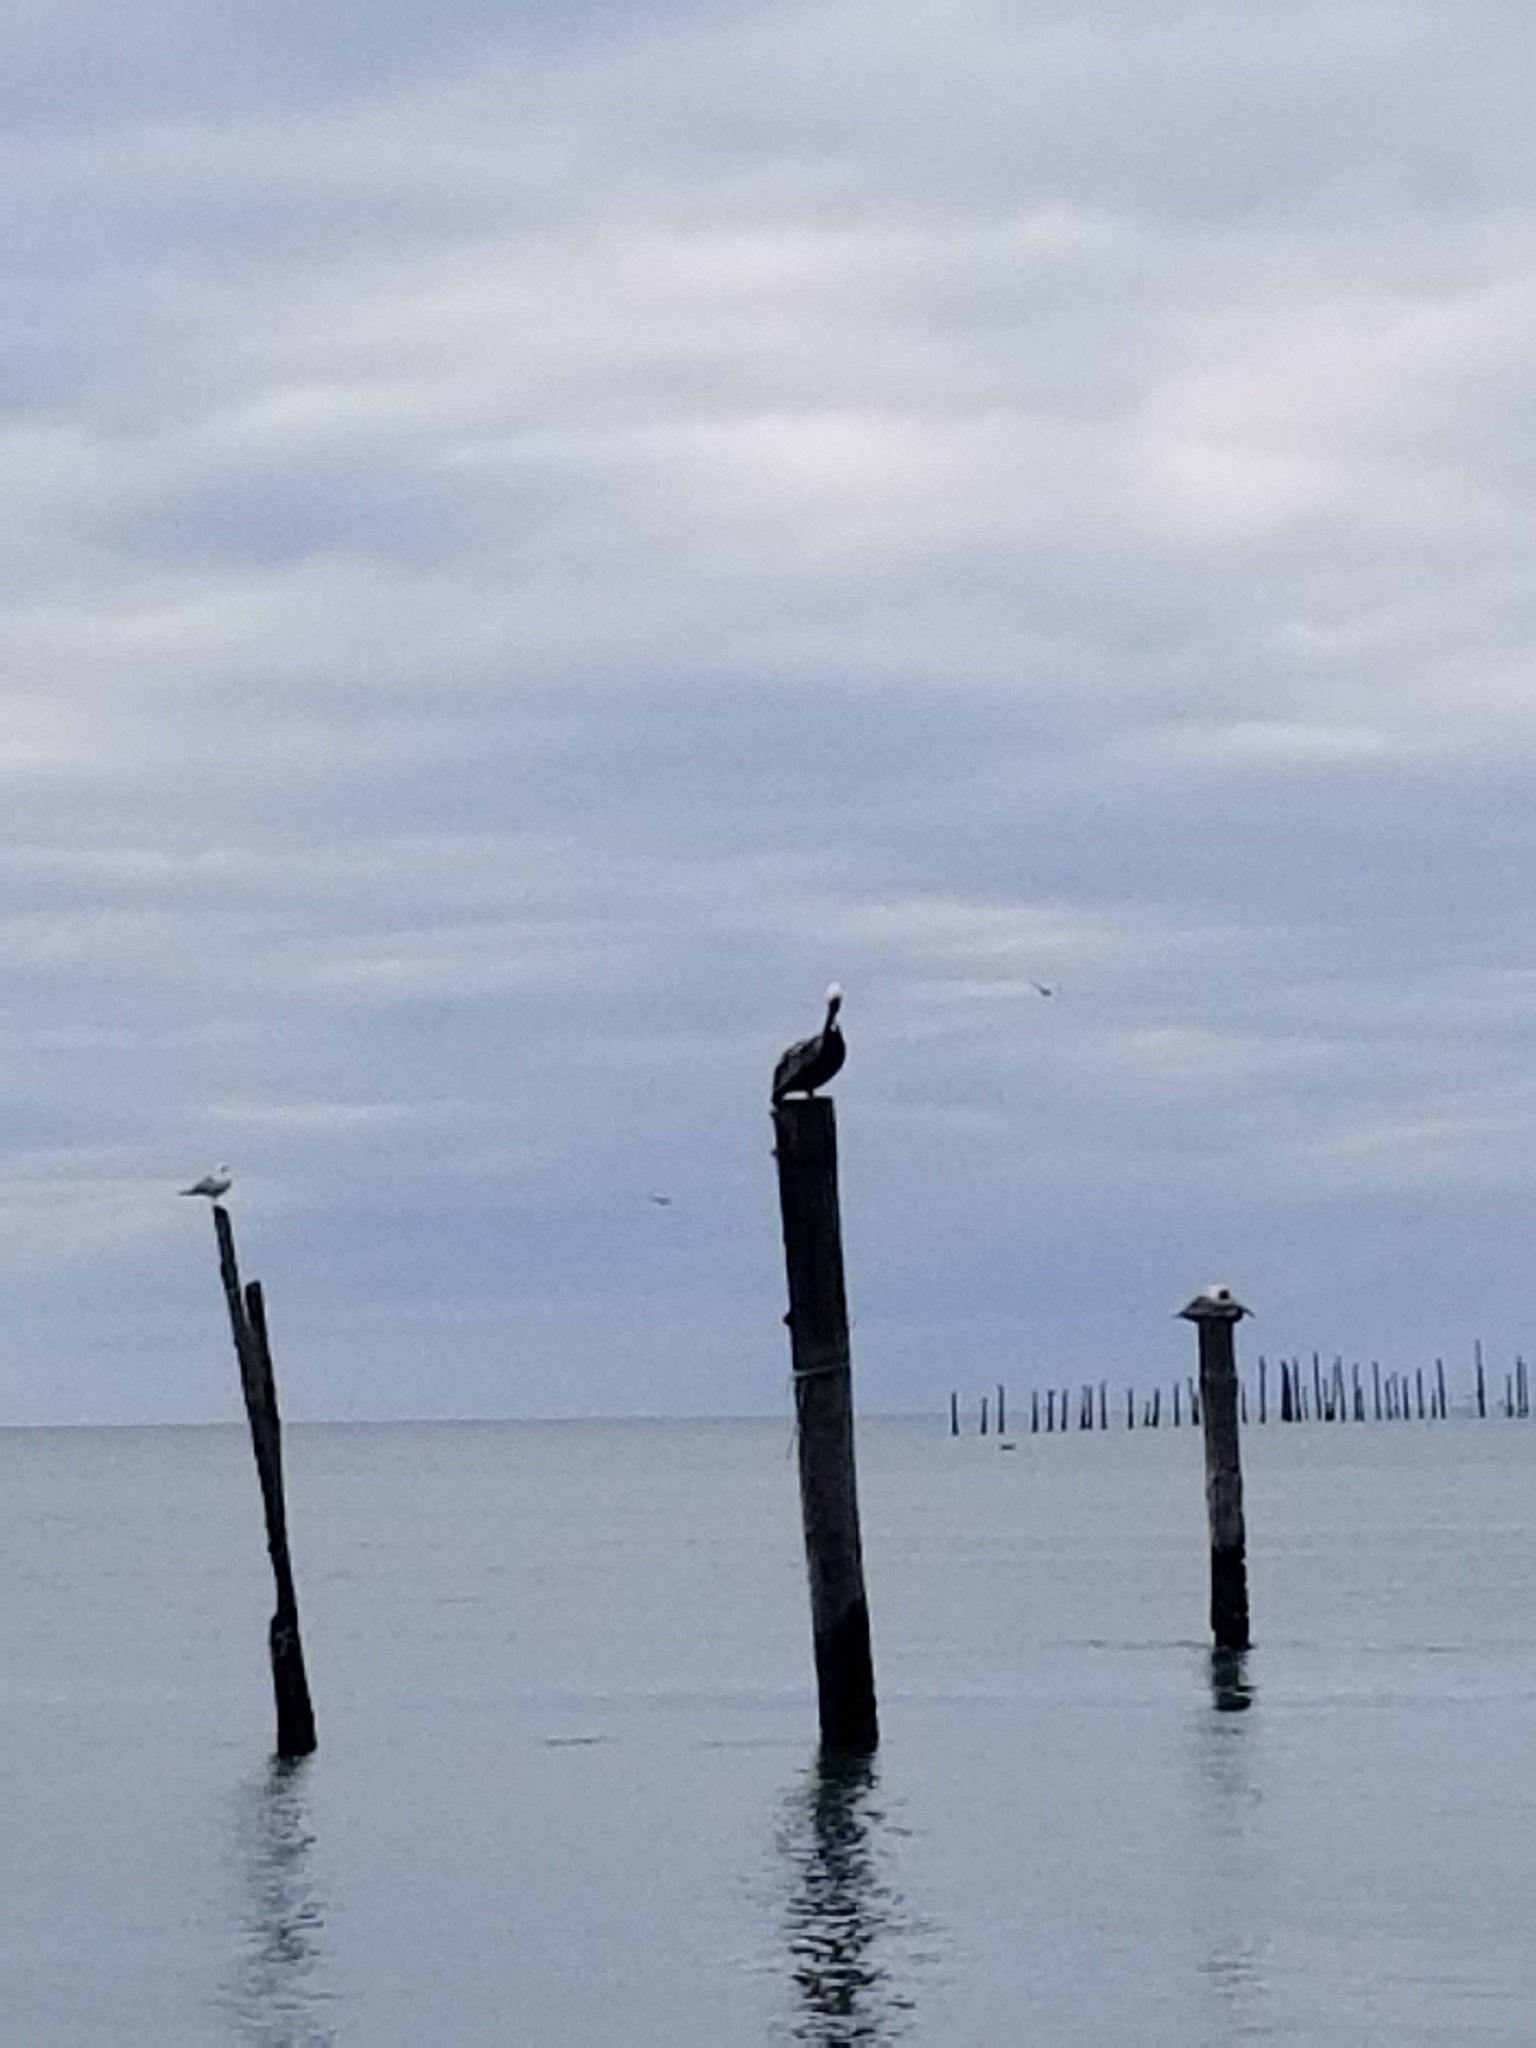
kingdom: Animalia
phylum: Chordata
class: Aves
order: Pelecaniformes
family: Pelecanidae
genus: Pelecanus
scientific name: Pelecanus occidentalis
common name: Brown pelican
